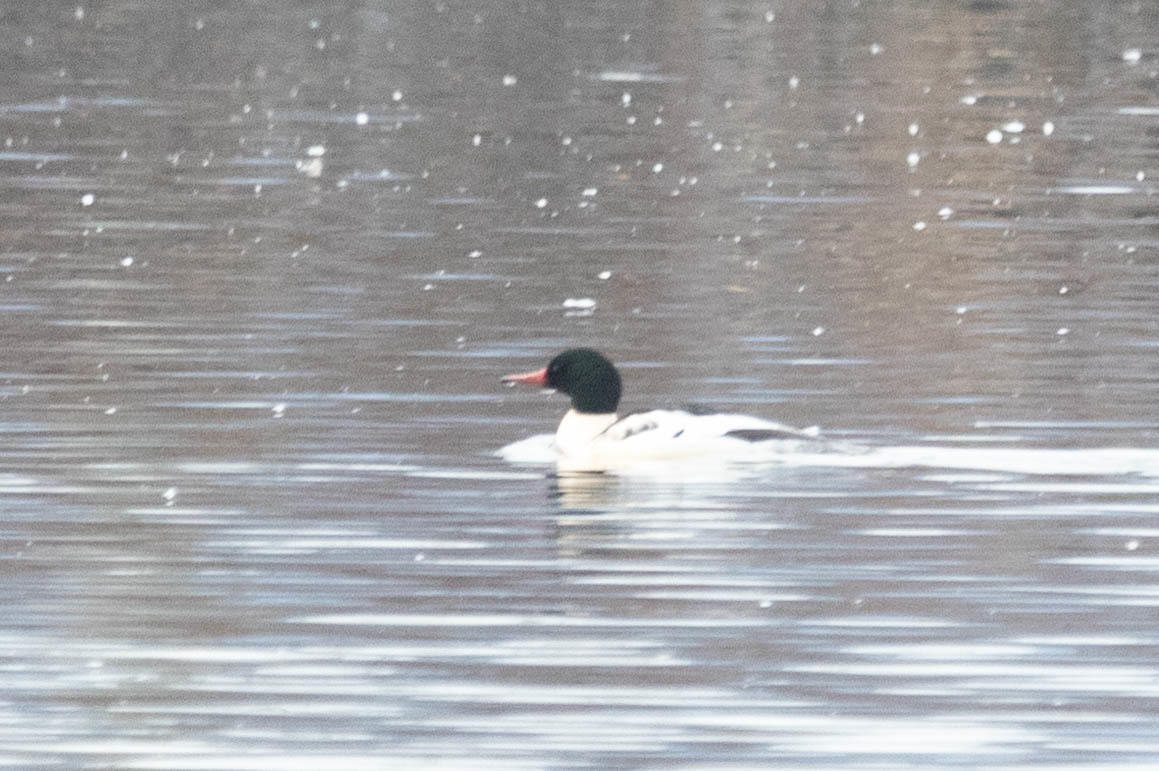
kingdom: Animalia
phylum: Chordata
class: Aves
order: Anseriformes
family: Anatidae
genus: Mergus
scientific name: Mergus merganser
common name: Common merganser
